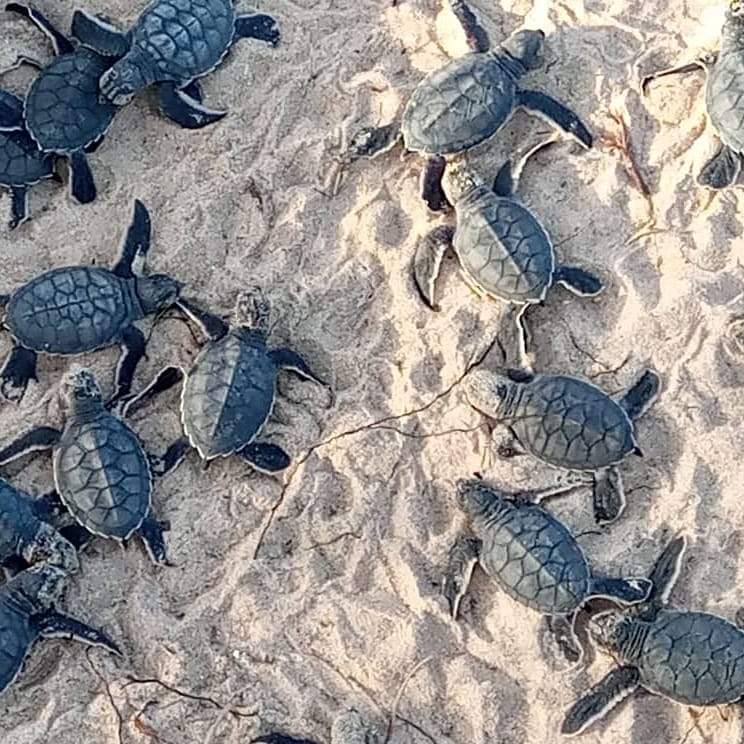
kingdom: Animalia
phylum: Chordata
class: Testudines
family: Cheloniidae
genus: Chelonia
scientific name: Chelonia mydas
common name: Green turtle
